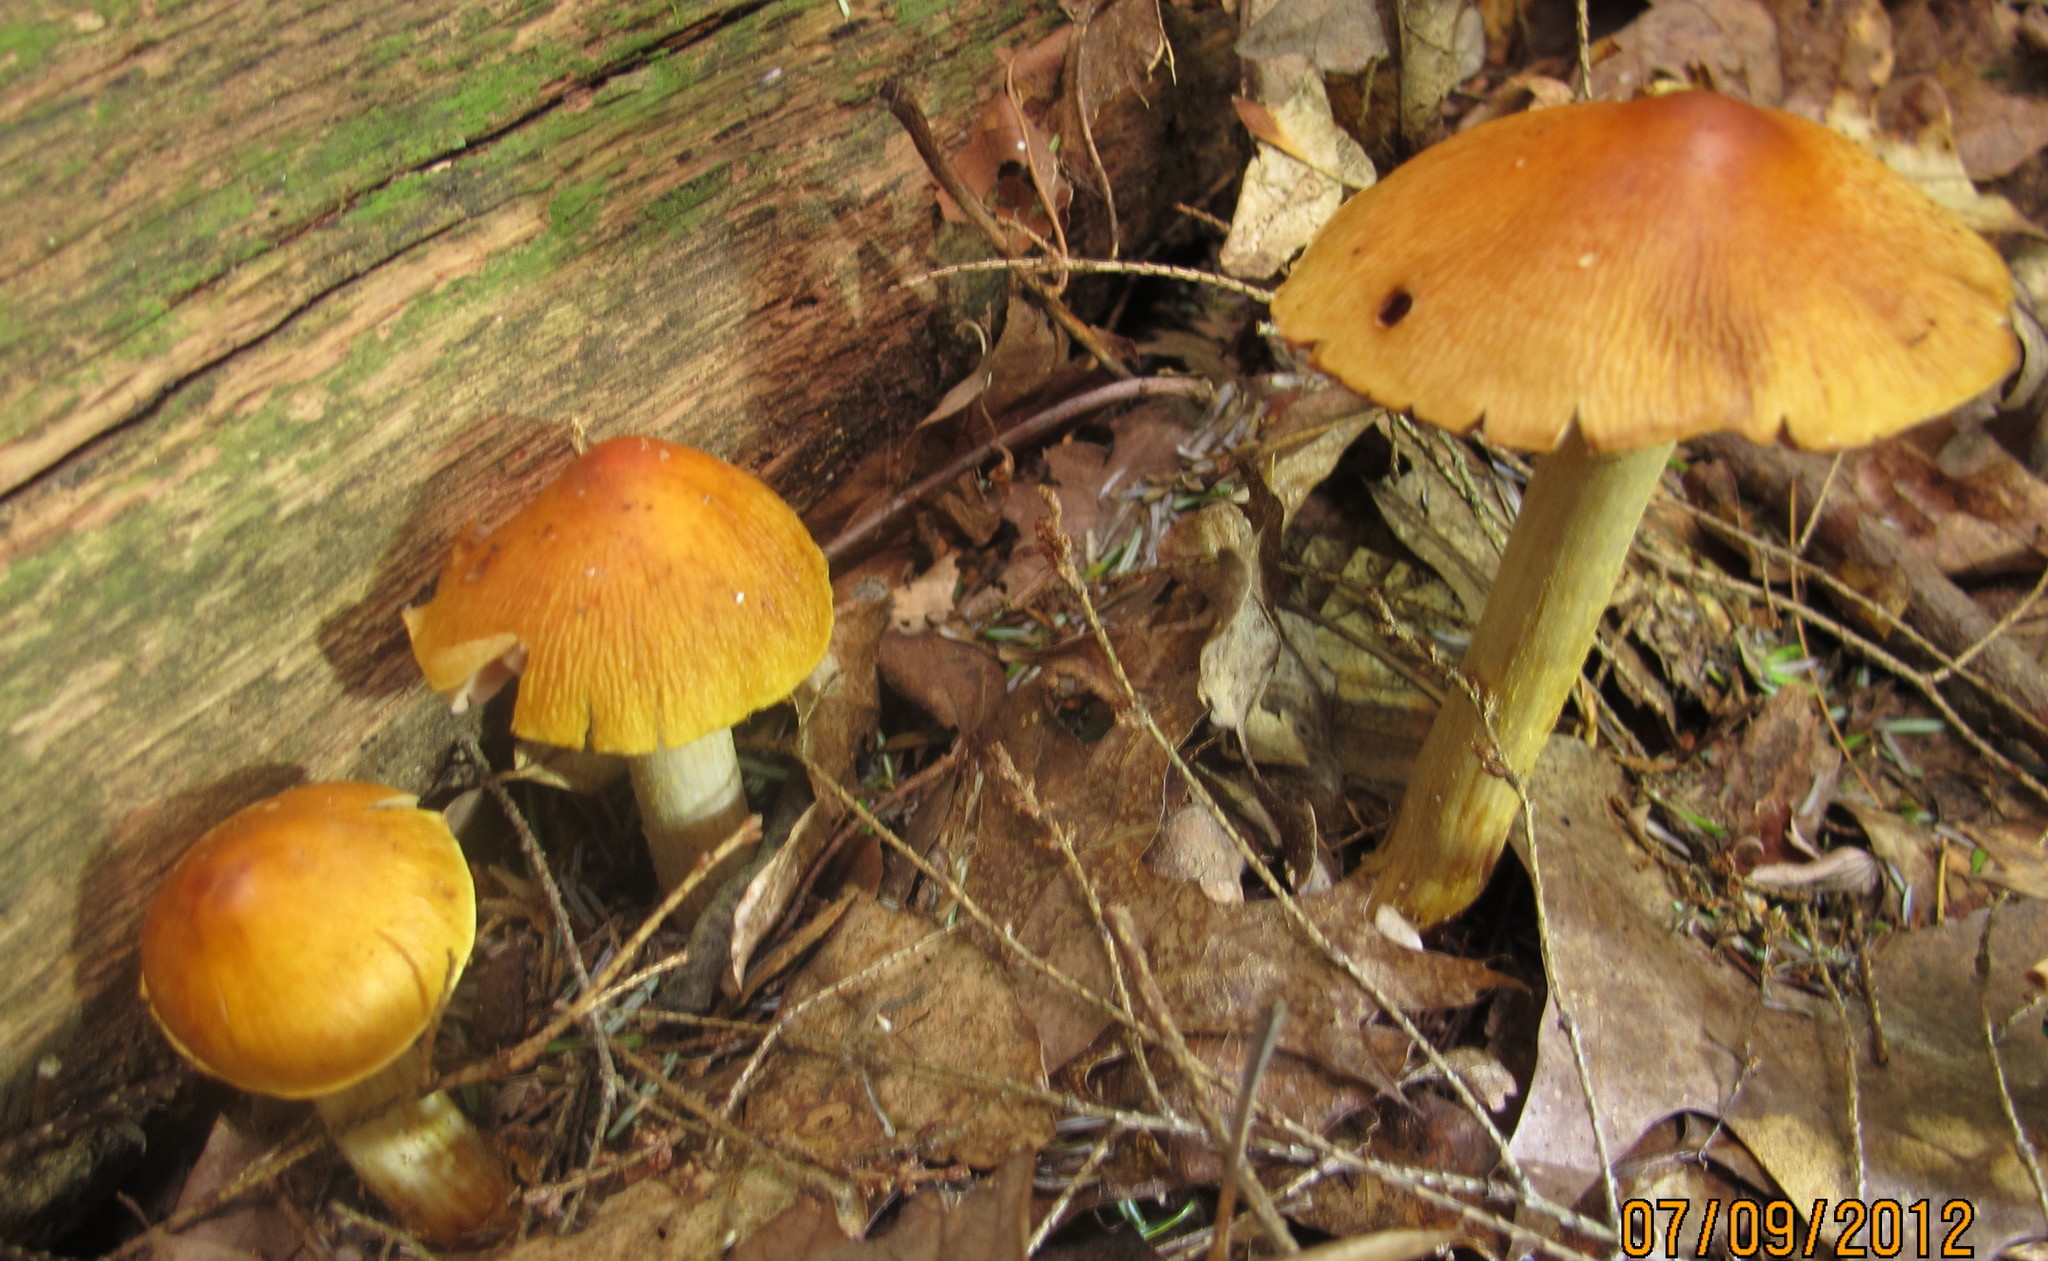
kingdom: Fungi
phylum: Basidiomycota
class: Agaricomycetes
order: Agaricales
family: Cortinariaceae
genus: Cortinarius
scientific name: Cortinarius corrugatus
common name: Wrinkled cortinarius
